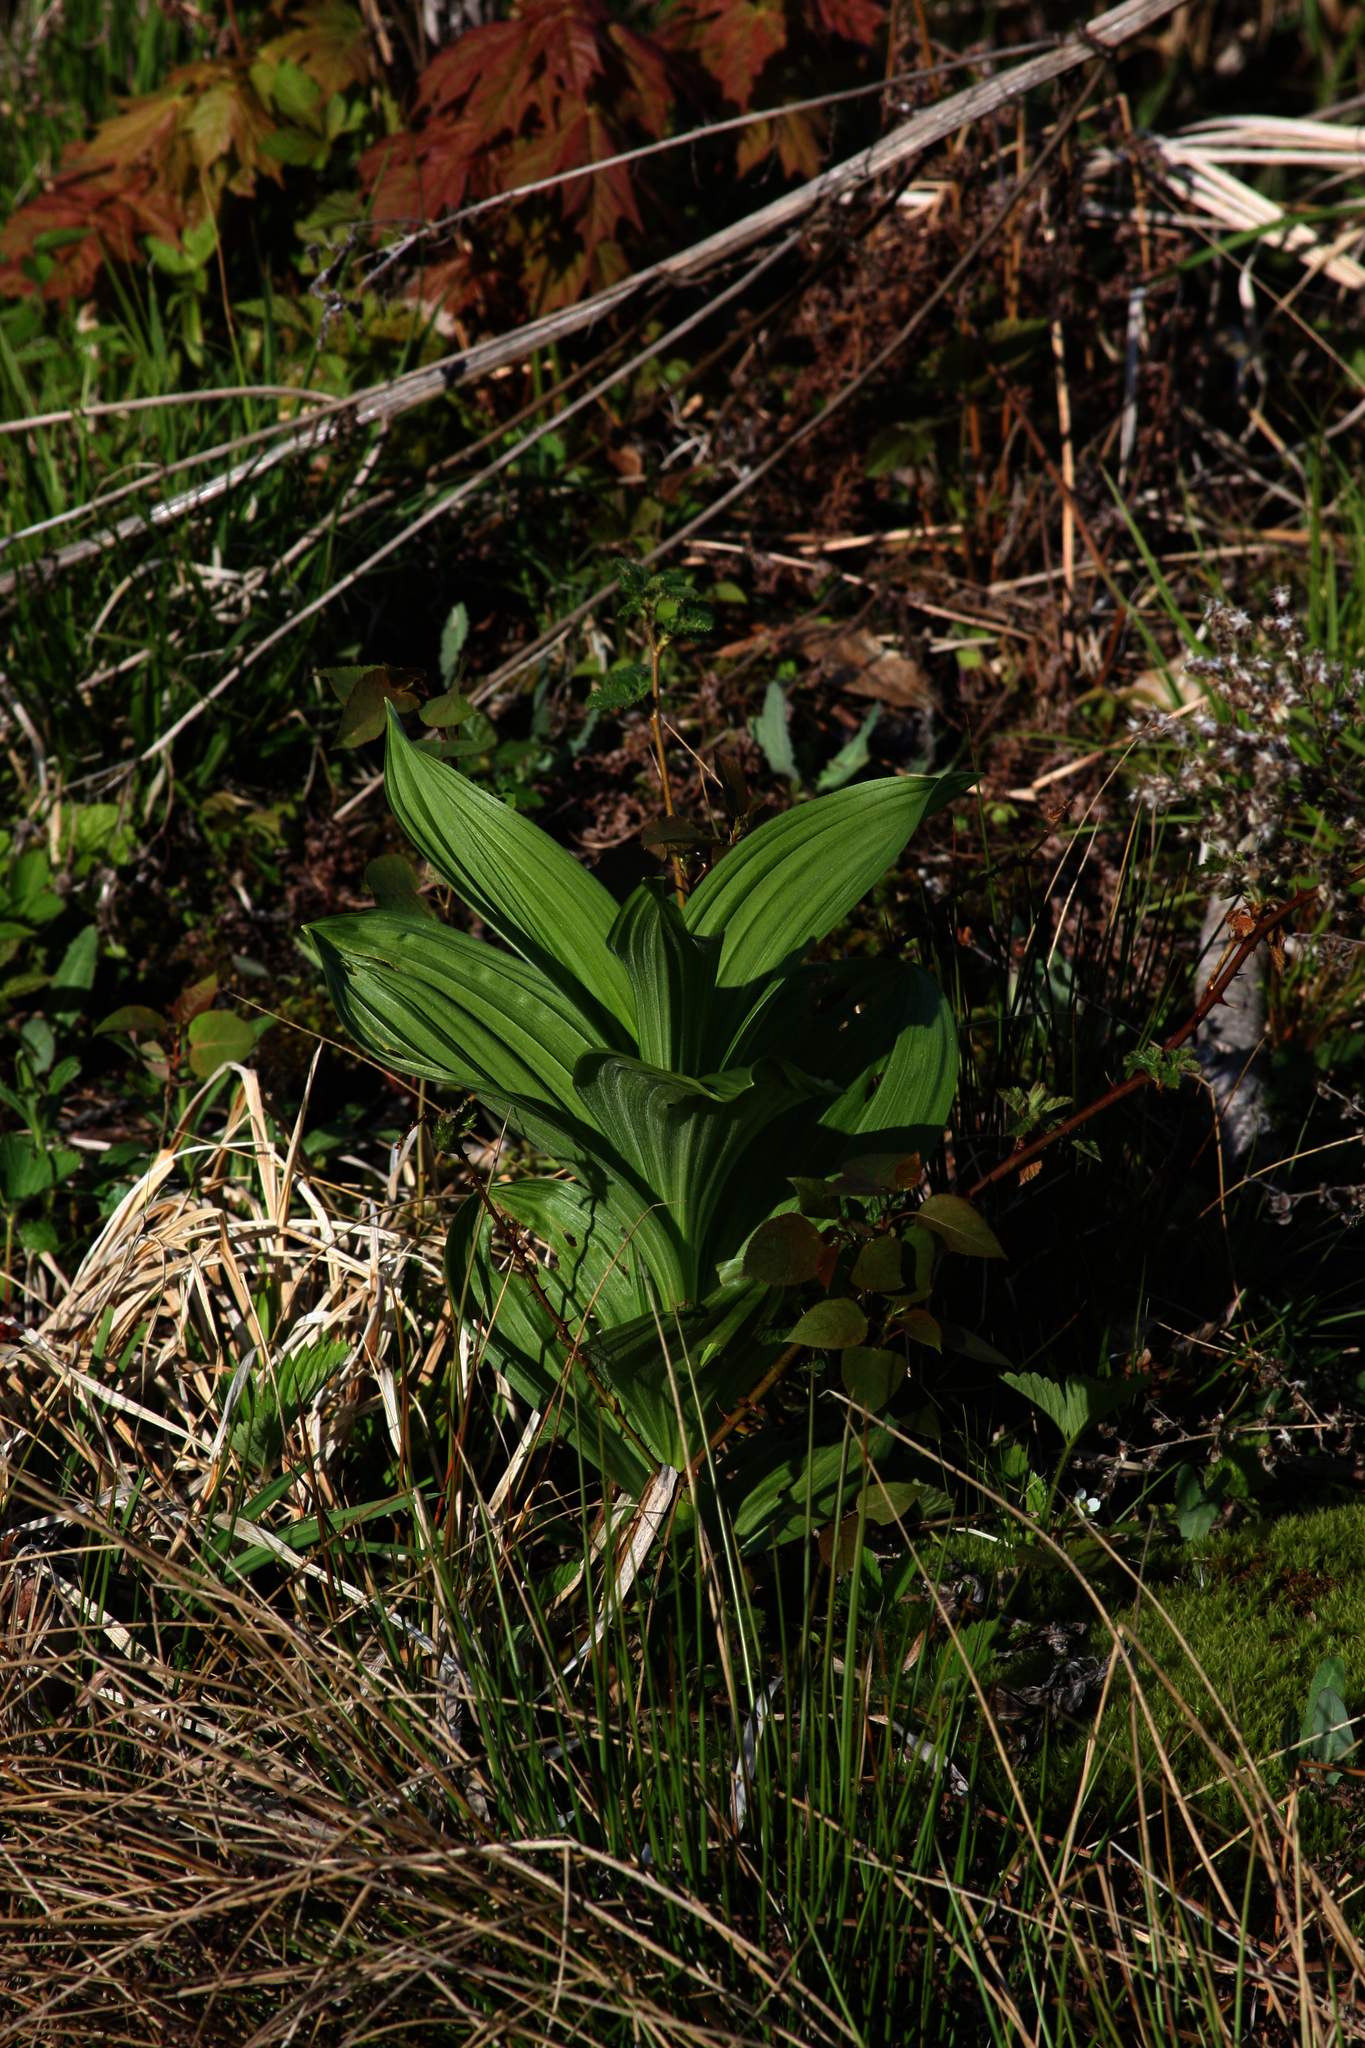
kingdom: Plantae
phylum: Tracheophyta
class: Liliopsida
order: Liliales
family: Melanthiaceae
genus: Veratrum
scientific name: Veratrum viride
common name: American false hellebore
